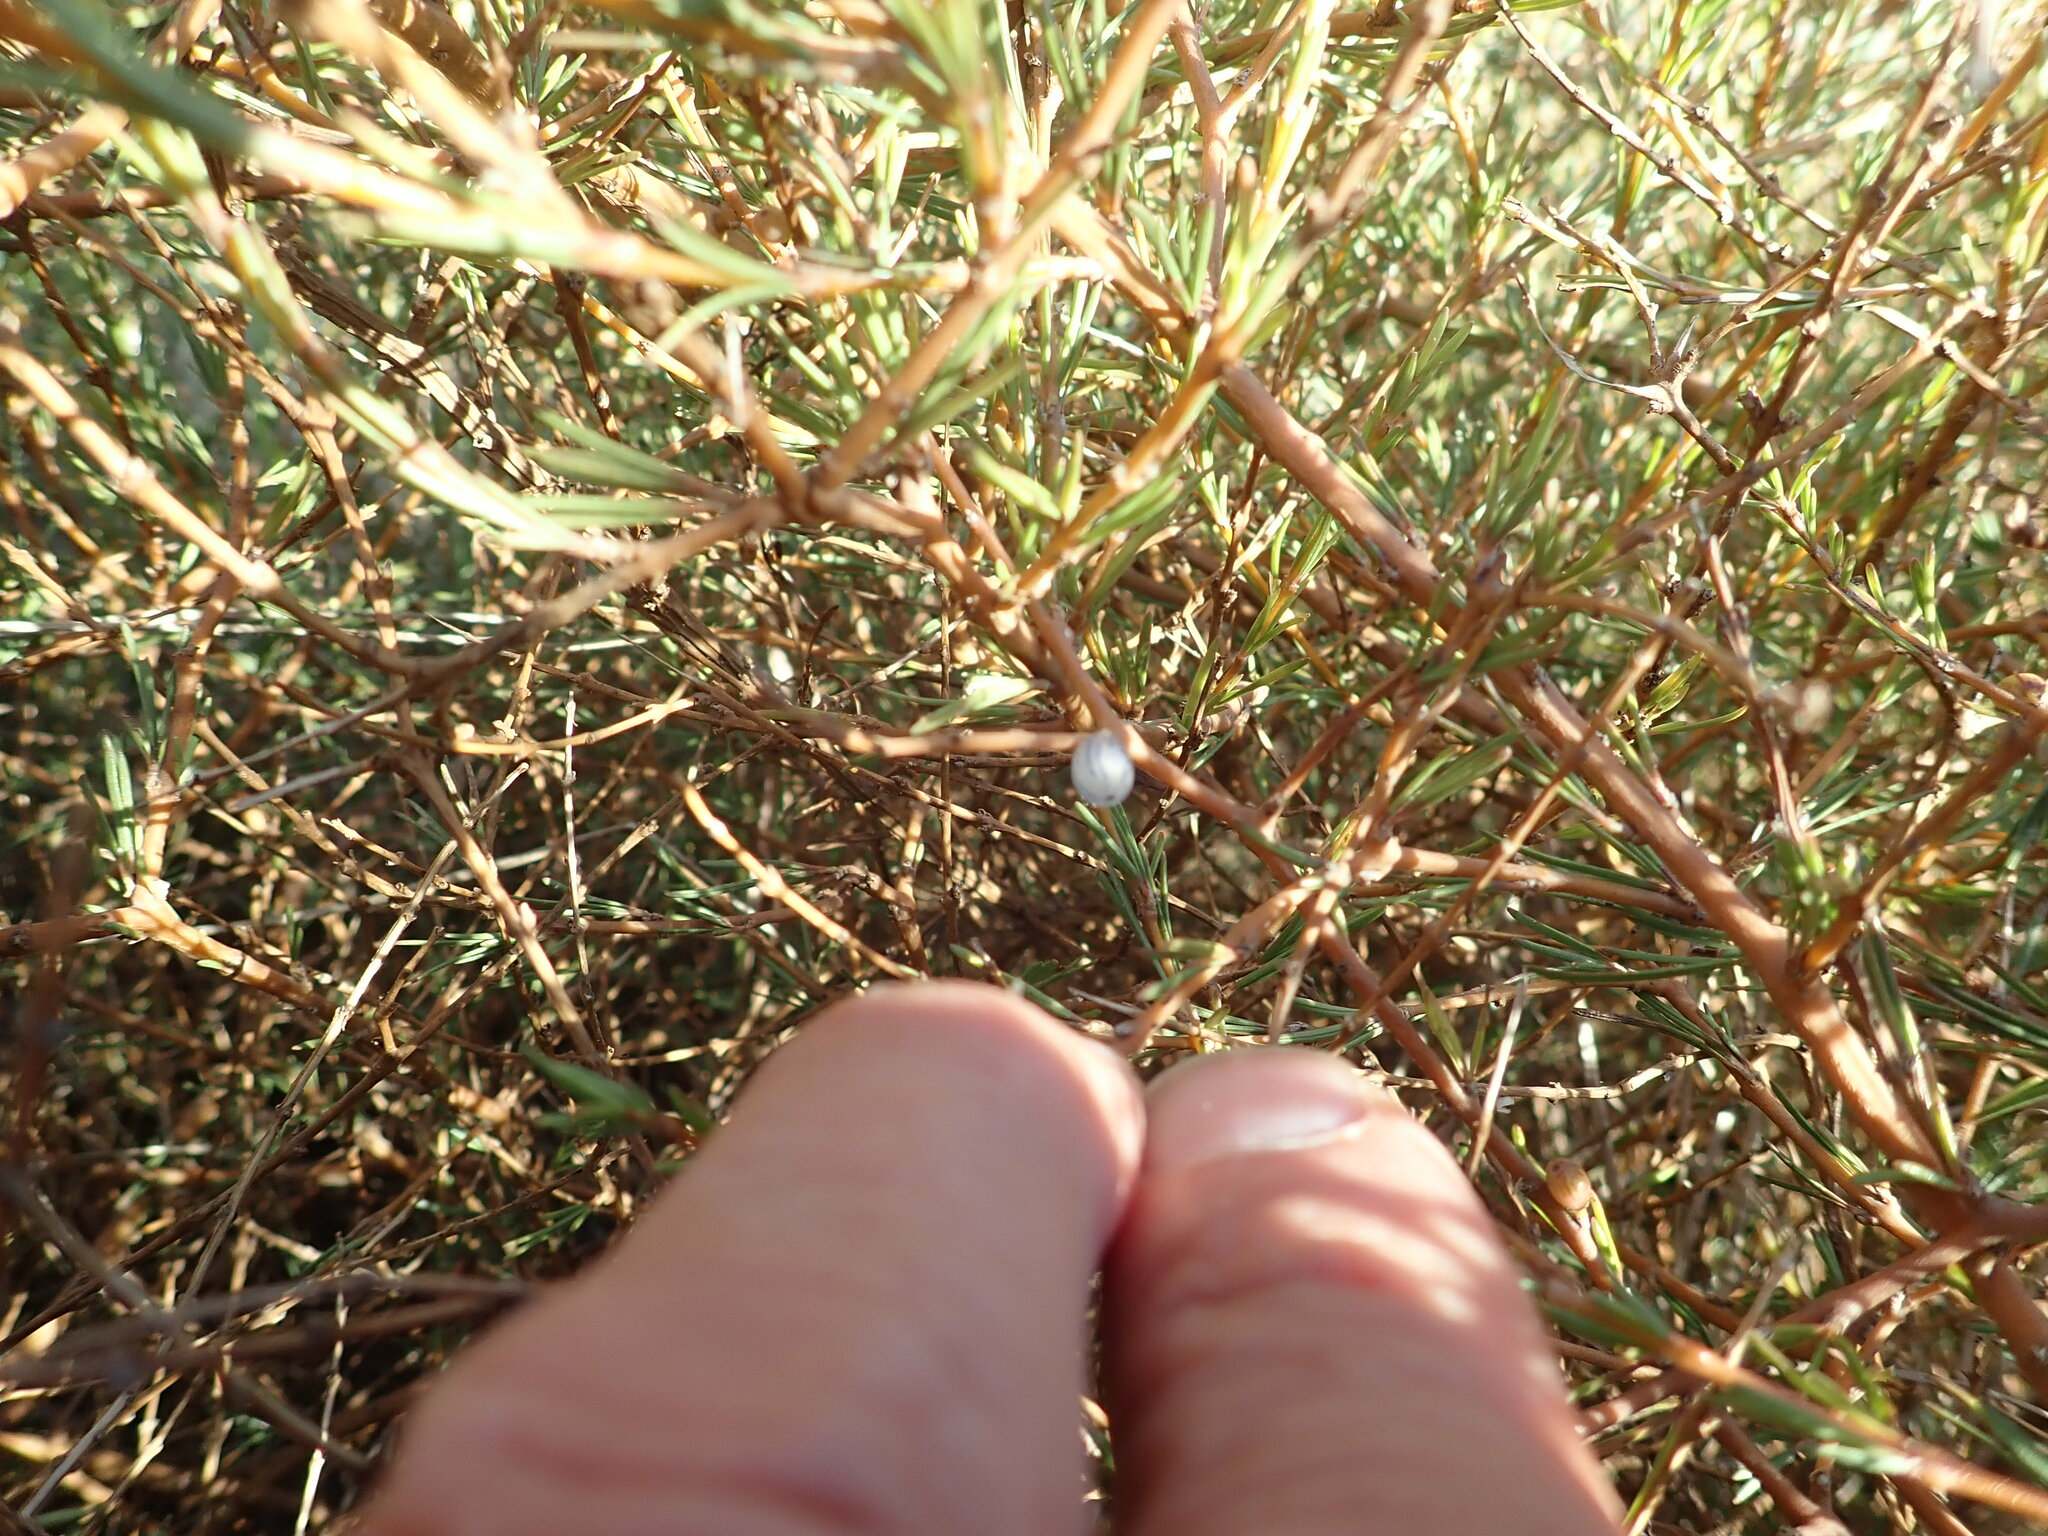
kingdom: Plantae
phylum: Tracheophyta
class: Magnoliopsida
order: Gentianales
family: Rubiaceae
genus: Coprosma
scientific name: Coprosma acerosa
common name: Sand coprosma
